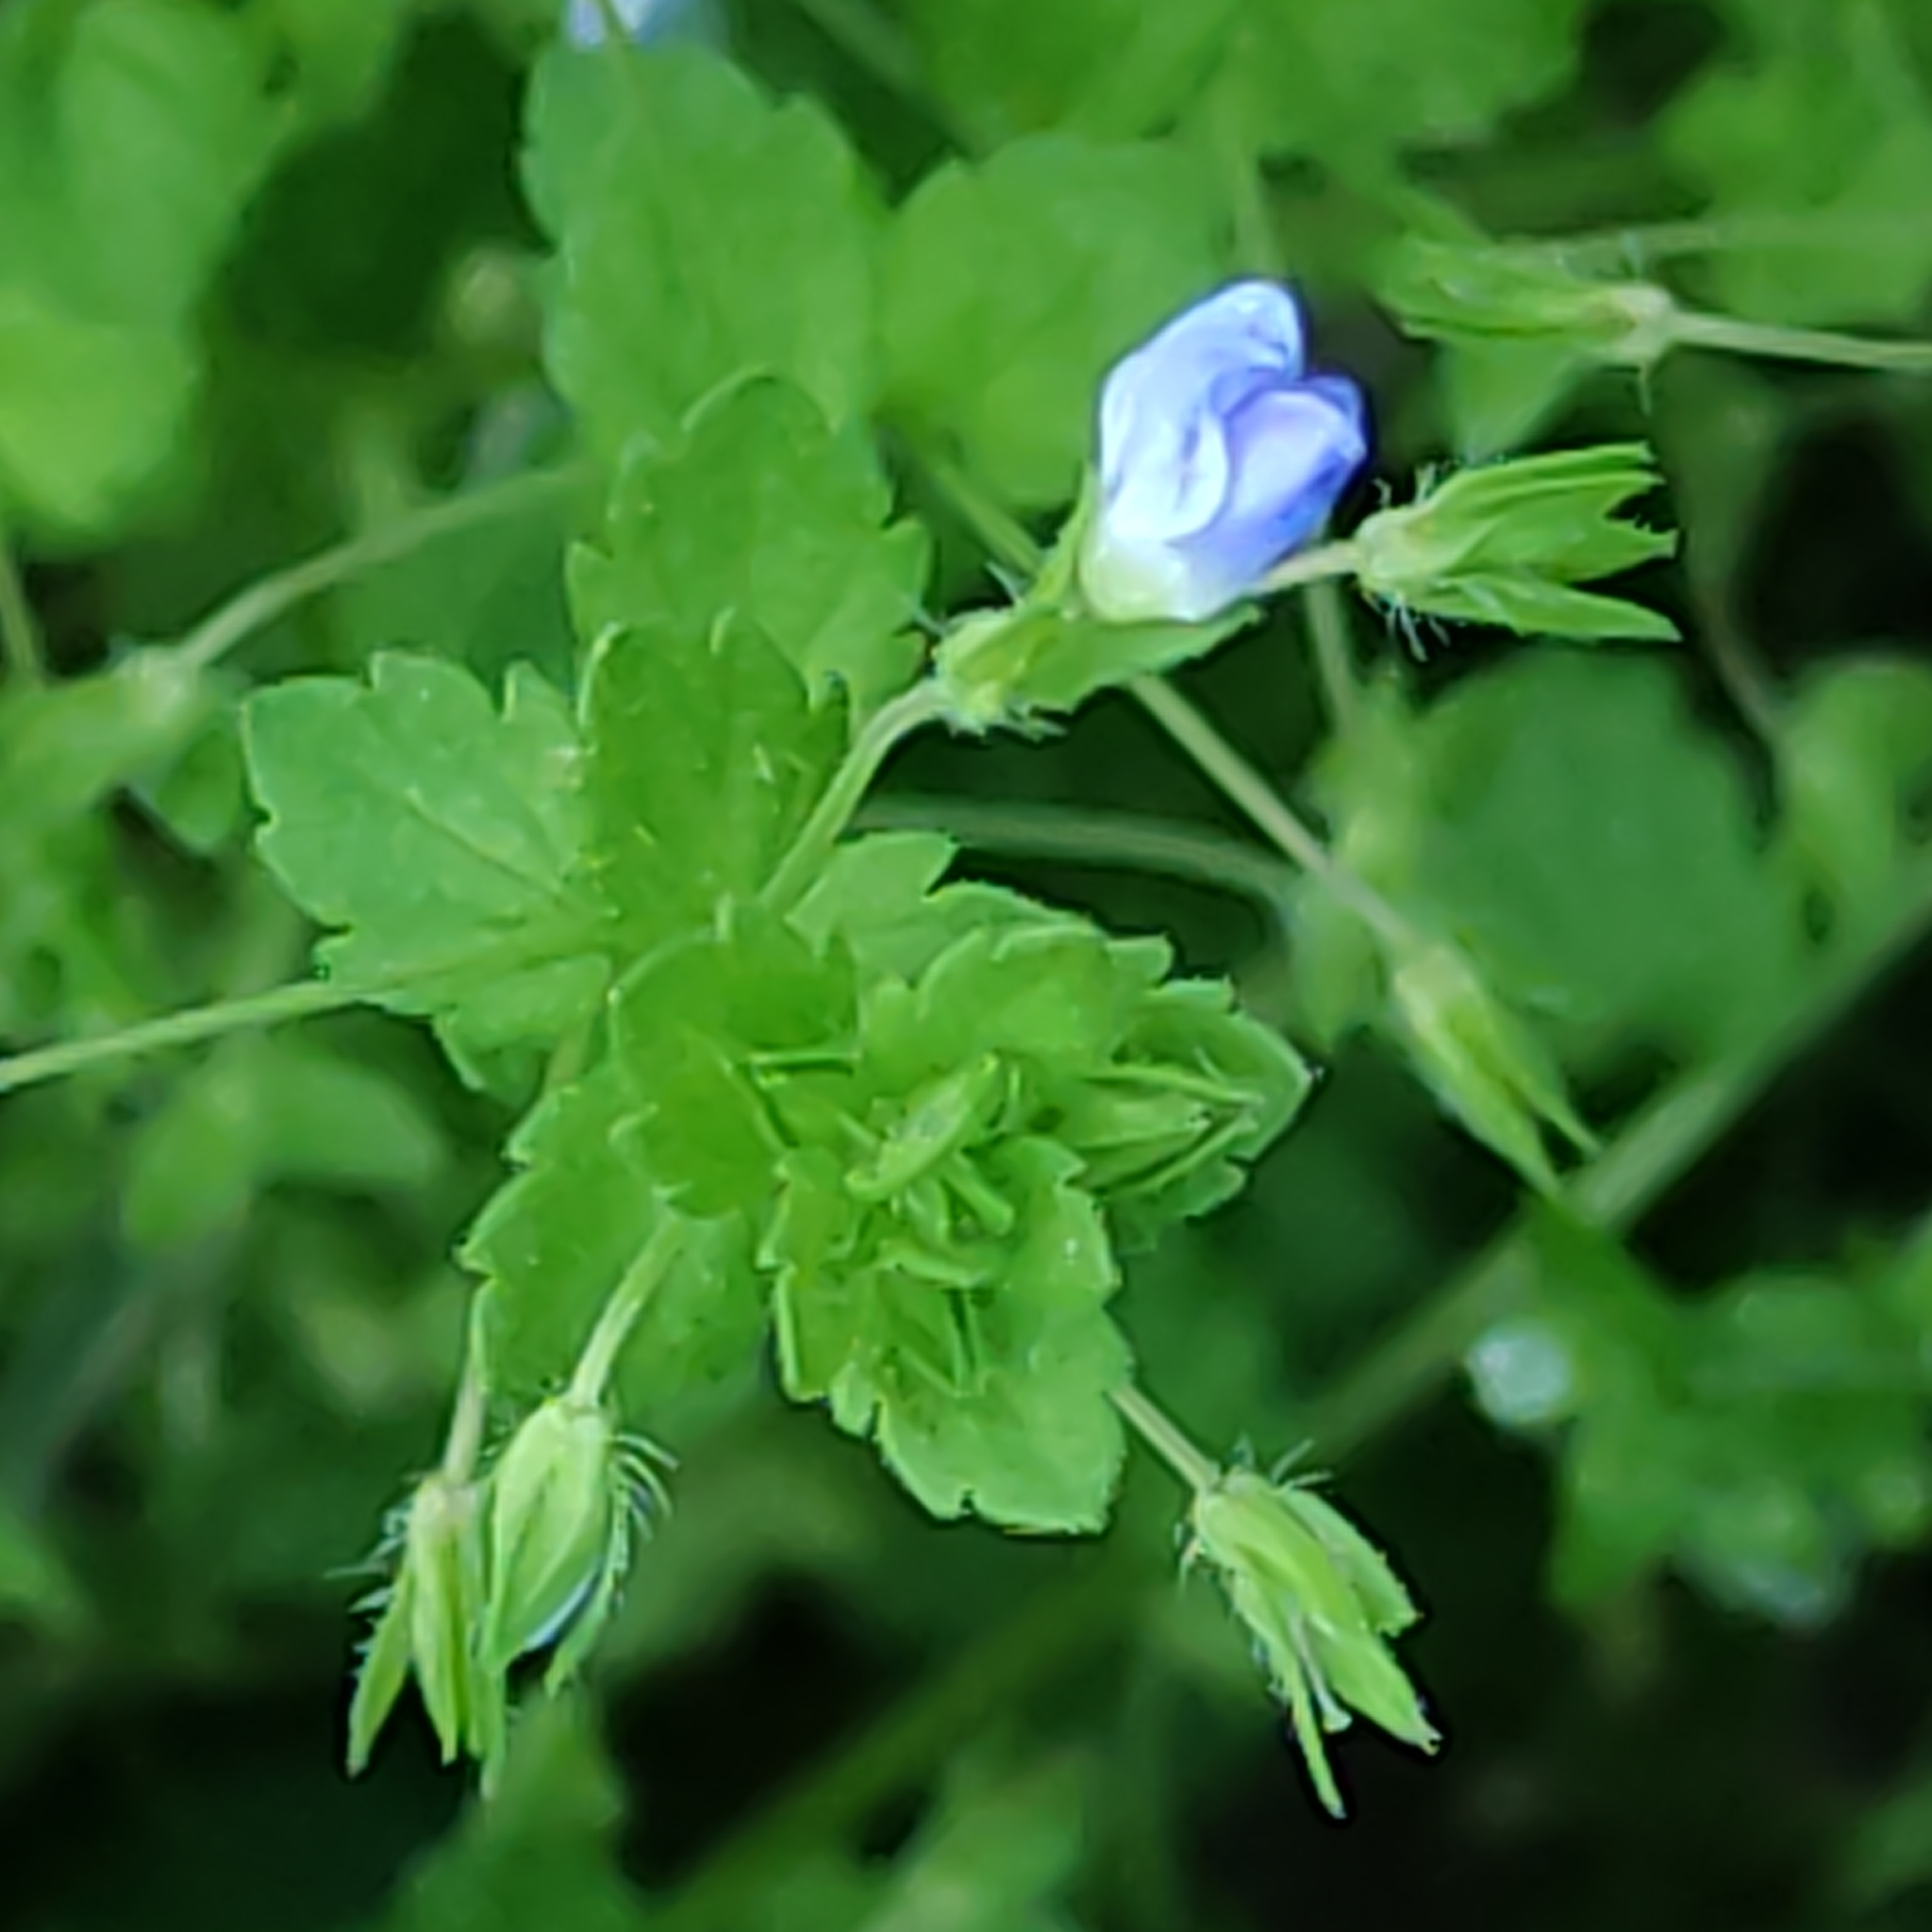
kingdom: Plantae
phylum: Tracheophyta
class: Magnoliopsida
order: Lamiales
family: Plantaginaceae
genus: Veronica
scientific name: Veronica persica
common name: Common field-speedwell
